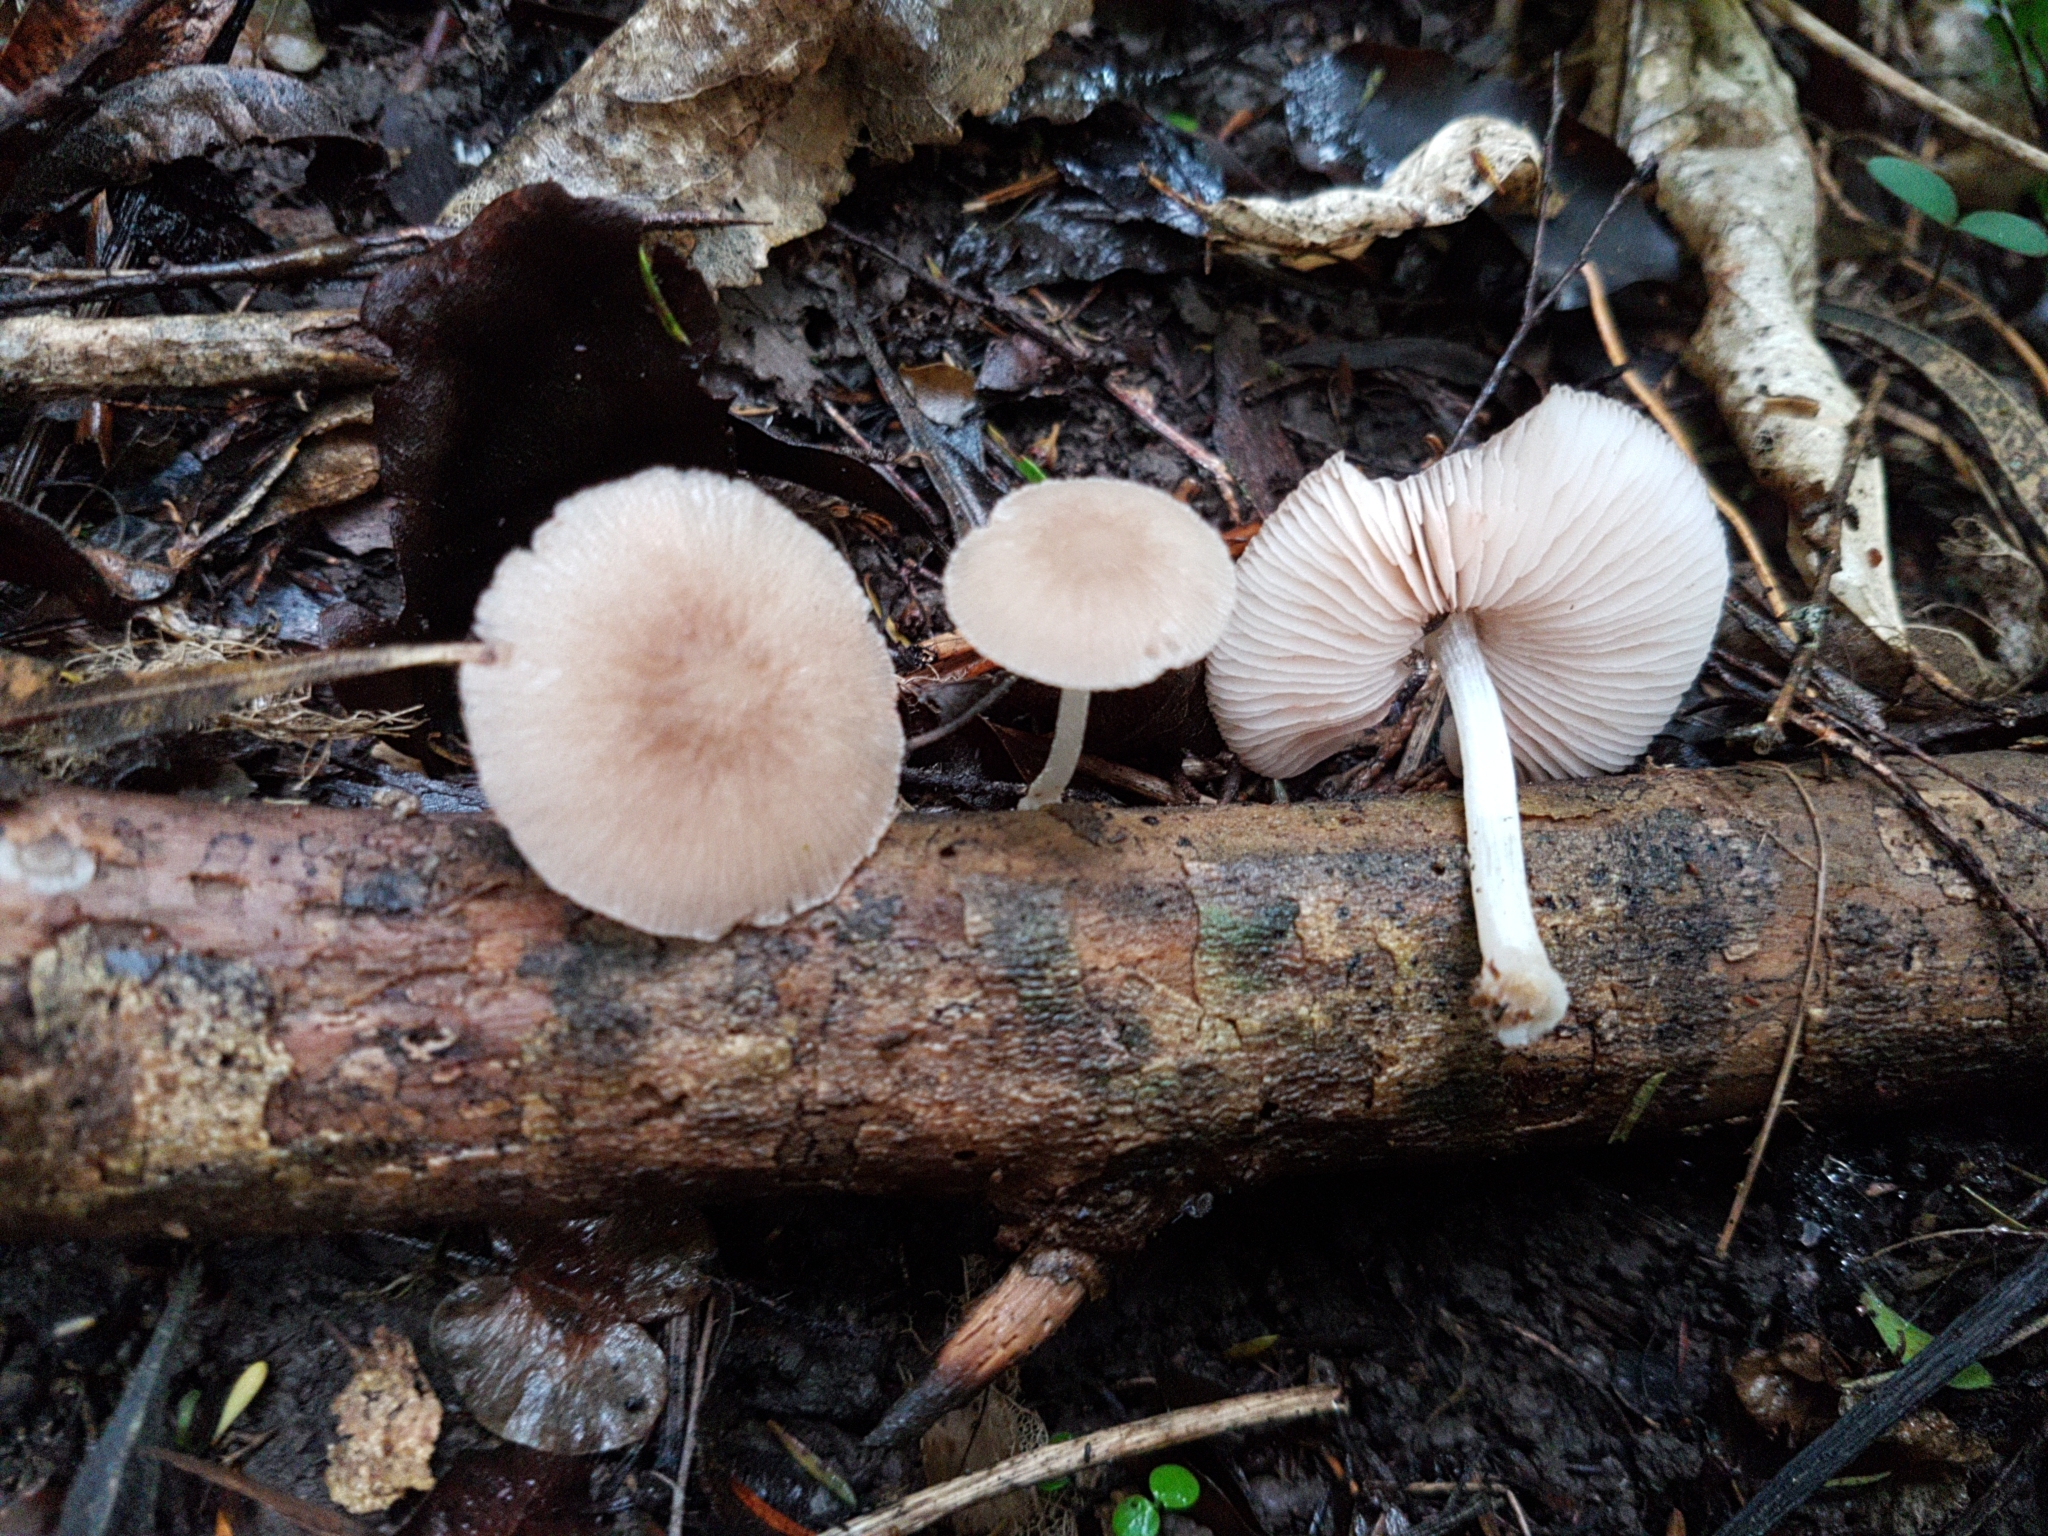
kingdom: Fungi
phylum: Basidiomycota
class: Agaricomycetes
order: Agaricales
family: Pluteaceae
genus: Pluteus
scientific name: Pluteus minor
